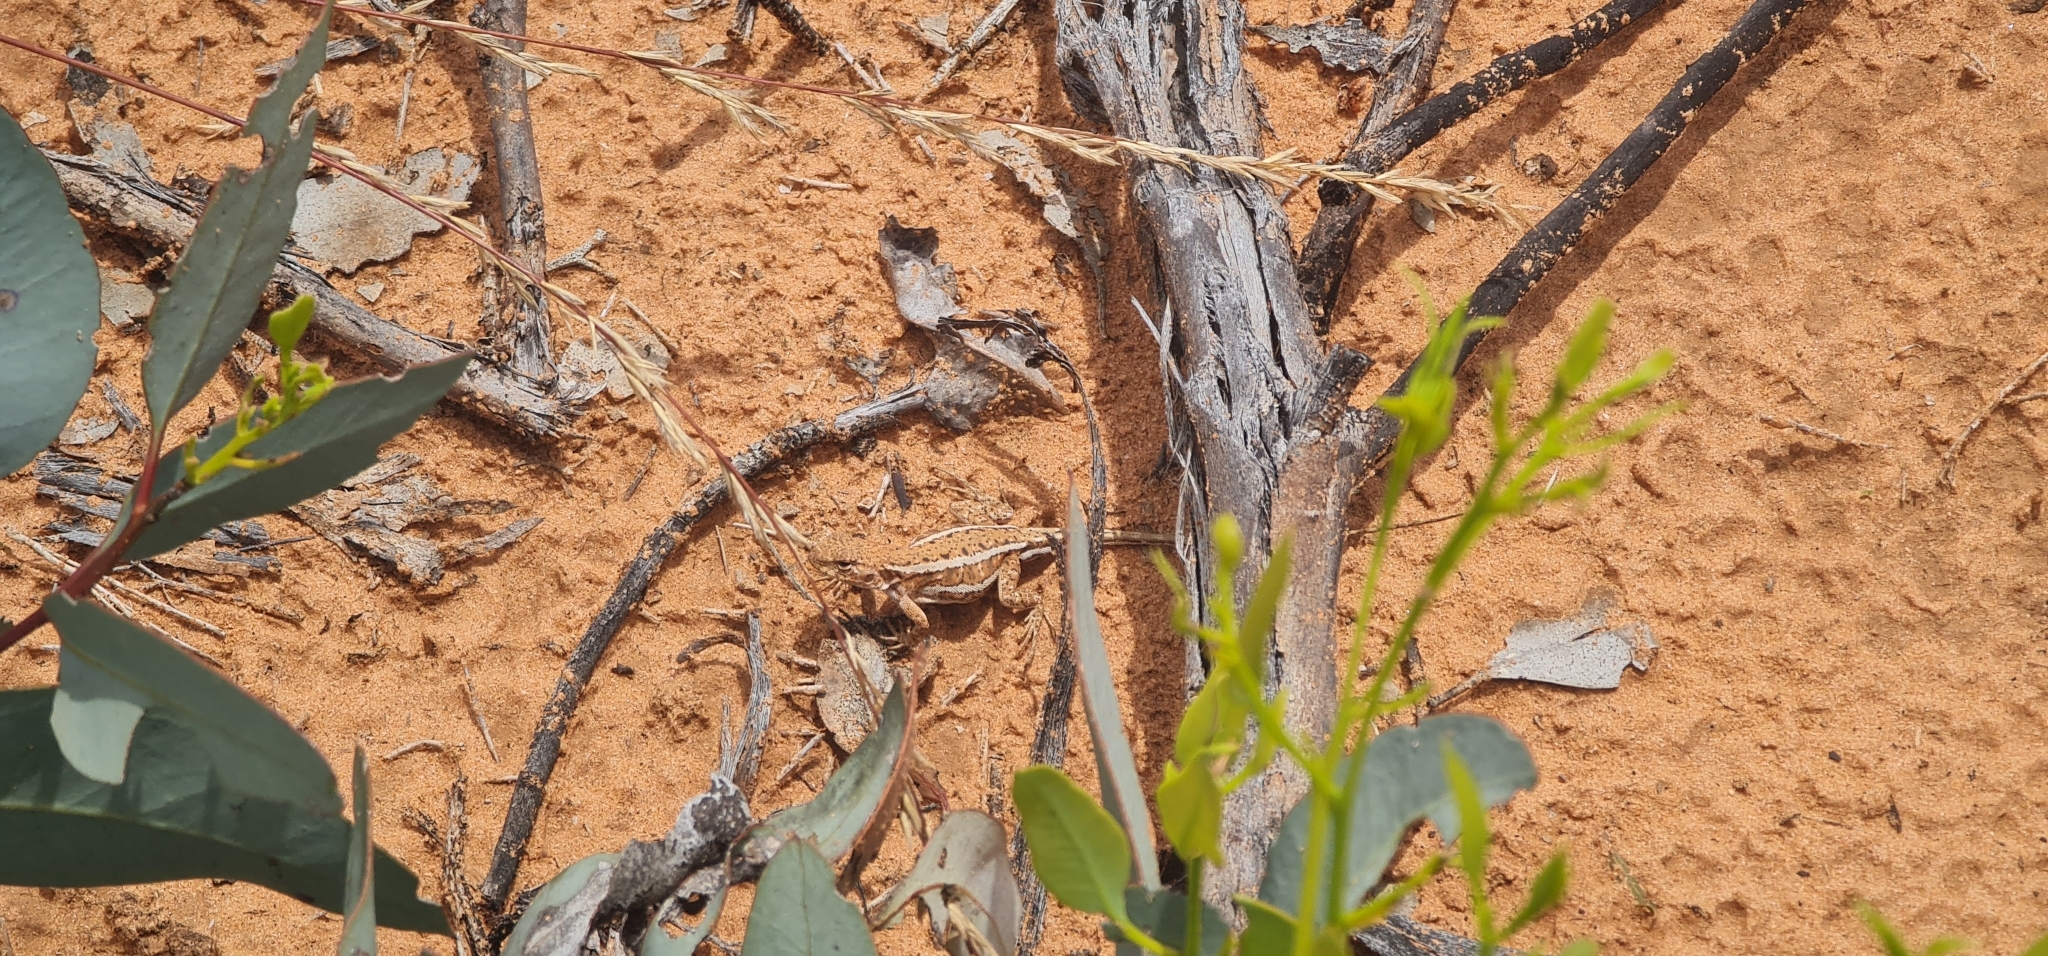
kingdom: Animalia
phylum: Chordata
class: Squamata
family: Agamidae
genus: Ctenophorus
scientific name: Ctenophorus spinodomus
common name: Eastern mallee dragon
